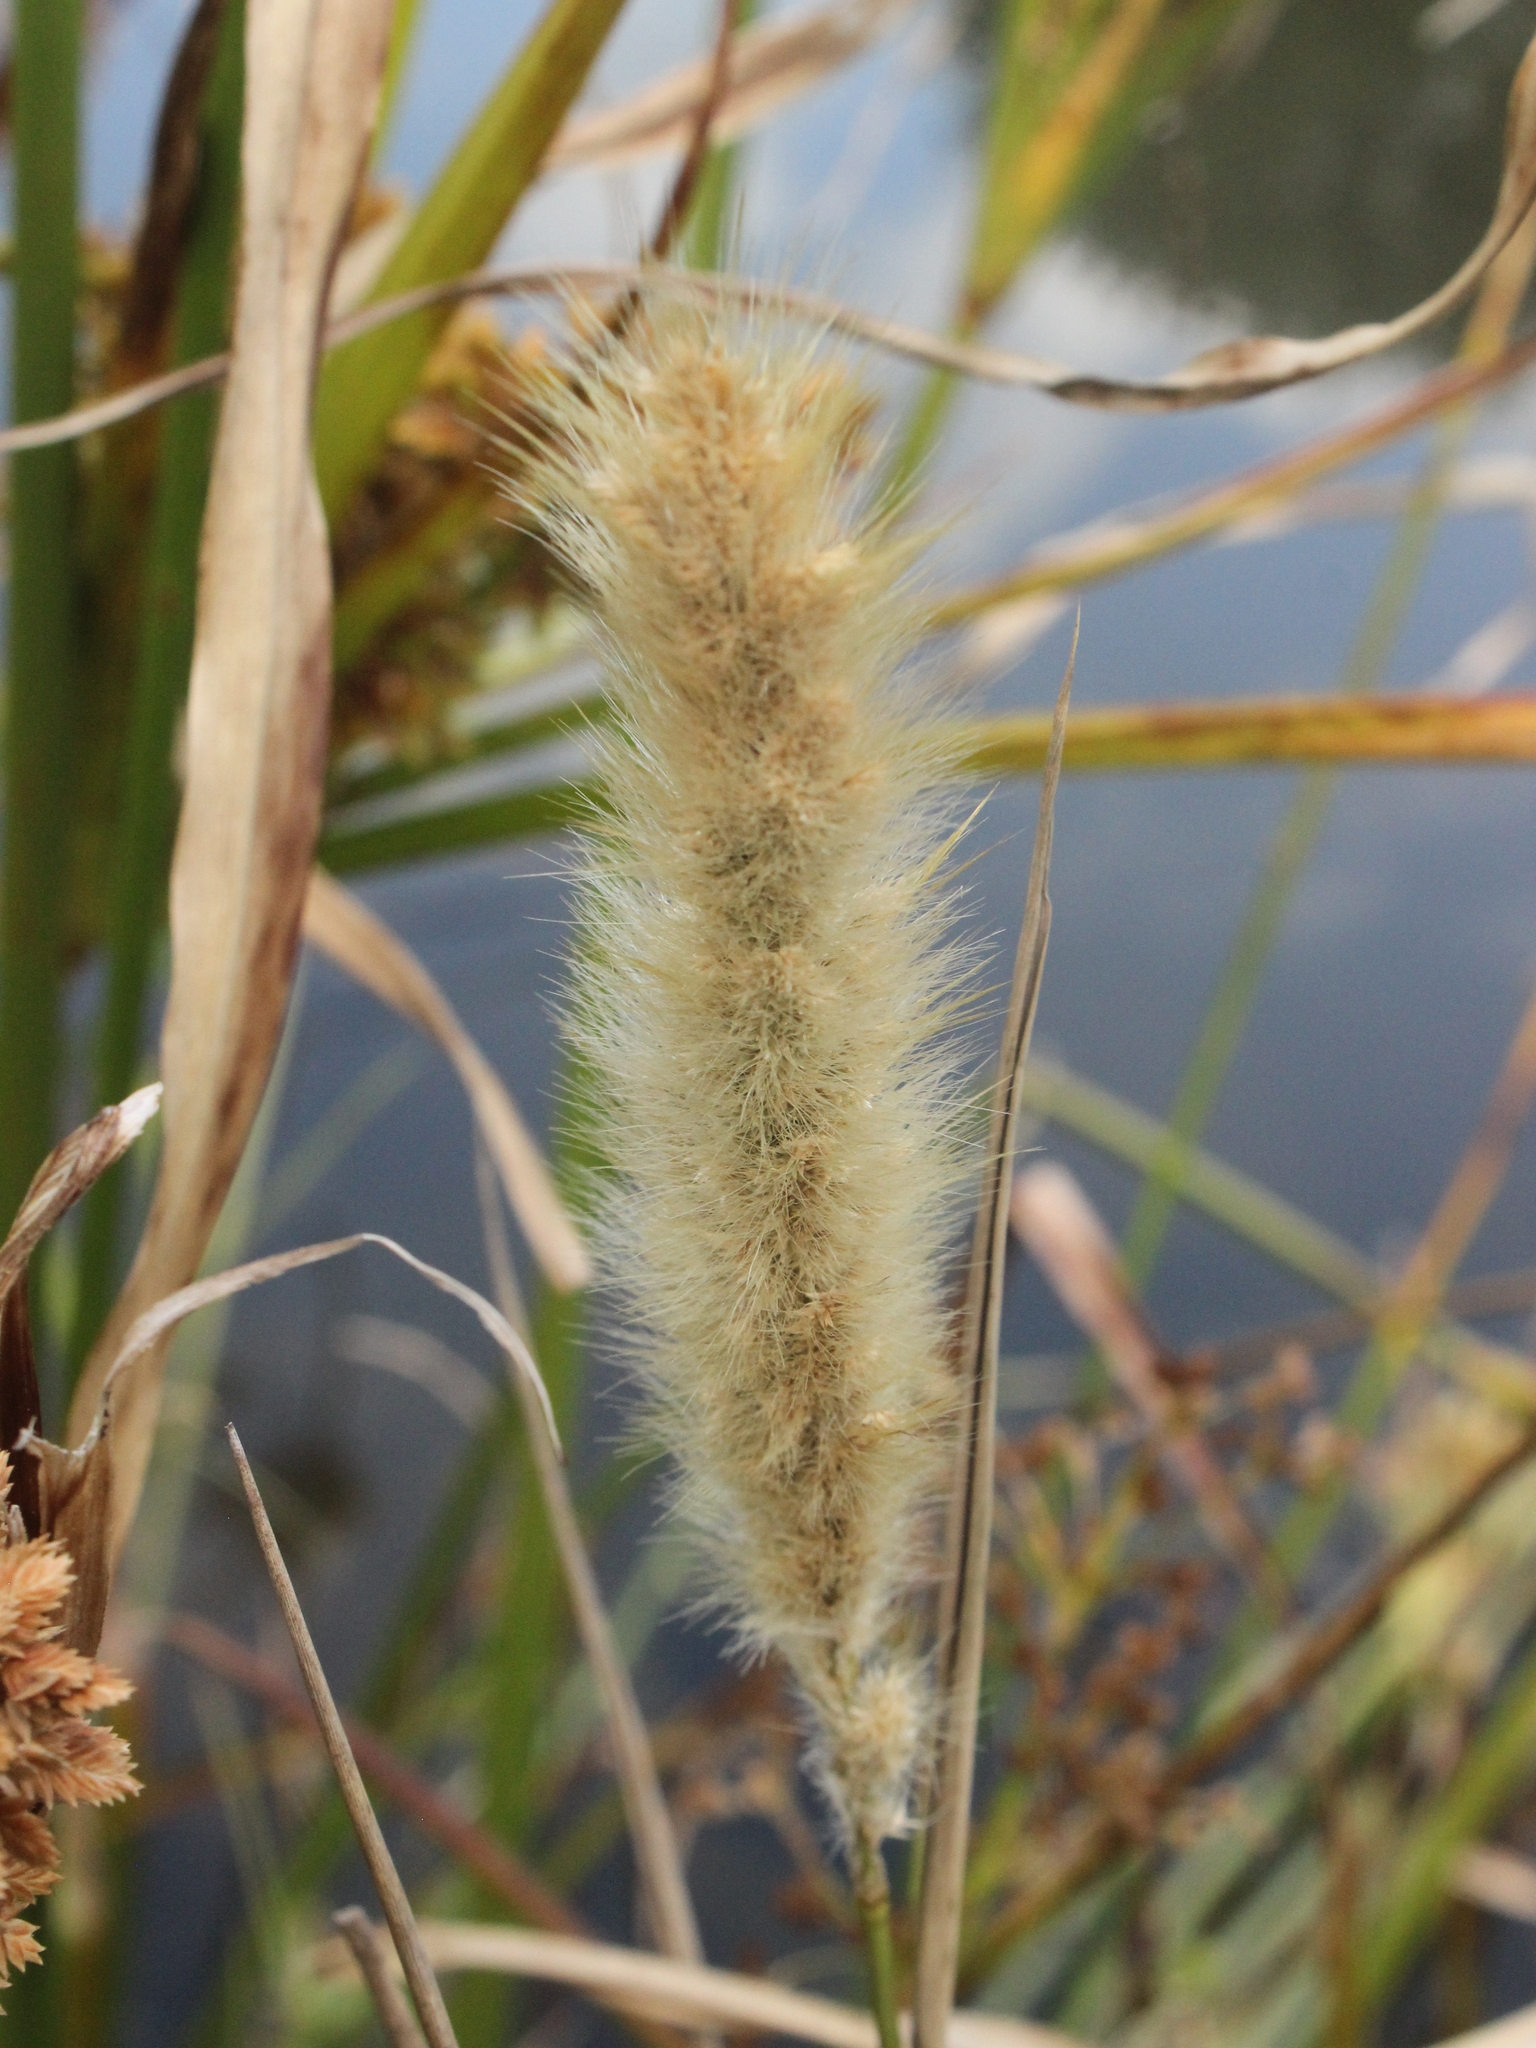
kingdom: Plantae
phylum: Tracheophyta
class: Liliopsida
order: Poales
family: Poaceae
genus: Polypogon
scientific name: Polypogon monspeliensis
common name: Annual rabbitsfoot grass
